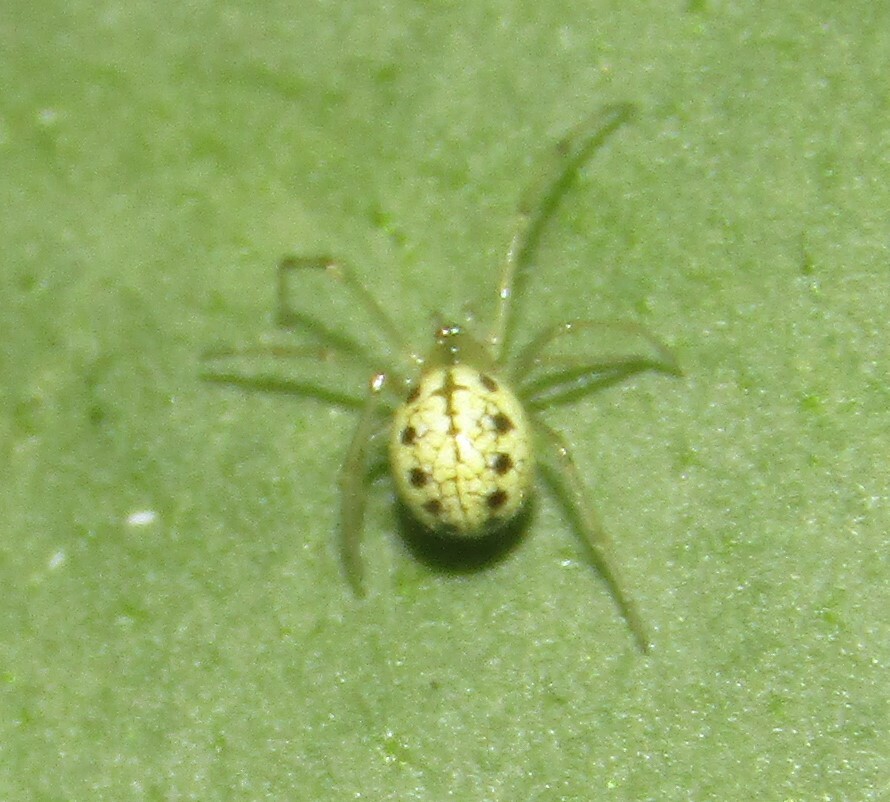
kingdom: Animalia
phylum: Arthropoda
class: Arachnida
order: Araneae
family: Theridiidae
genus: Enoplognatha
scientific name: Enoplognatha ovata
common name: Common candy-striped spider
